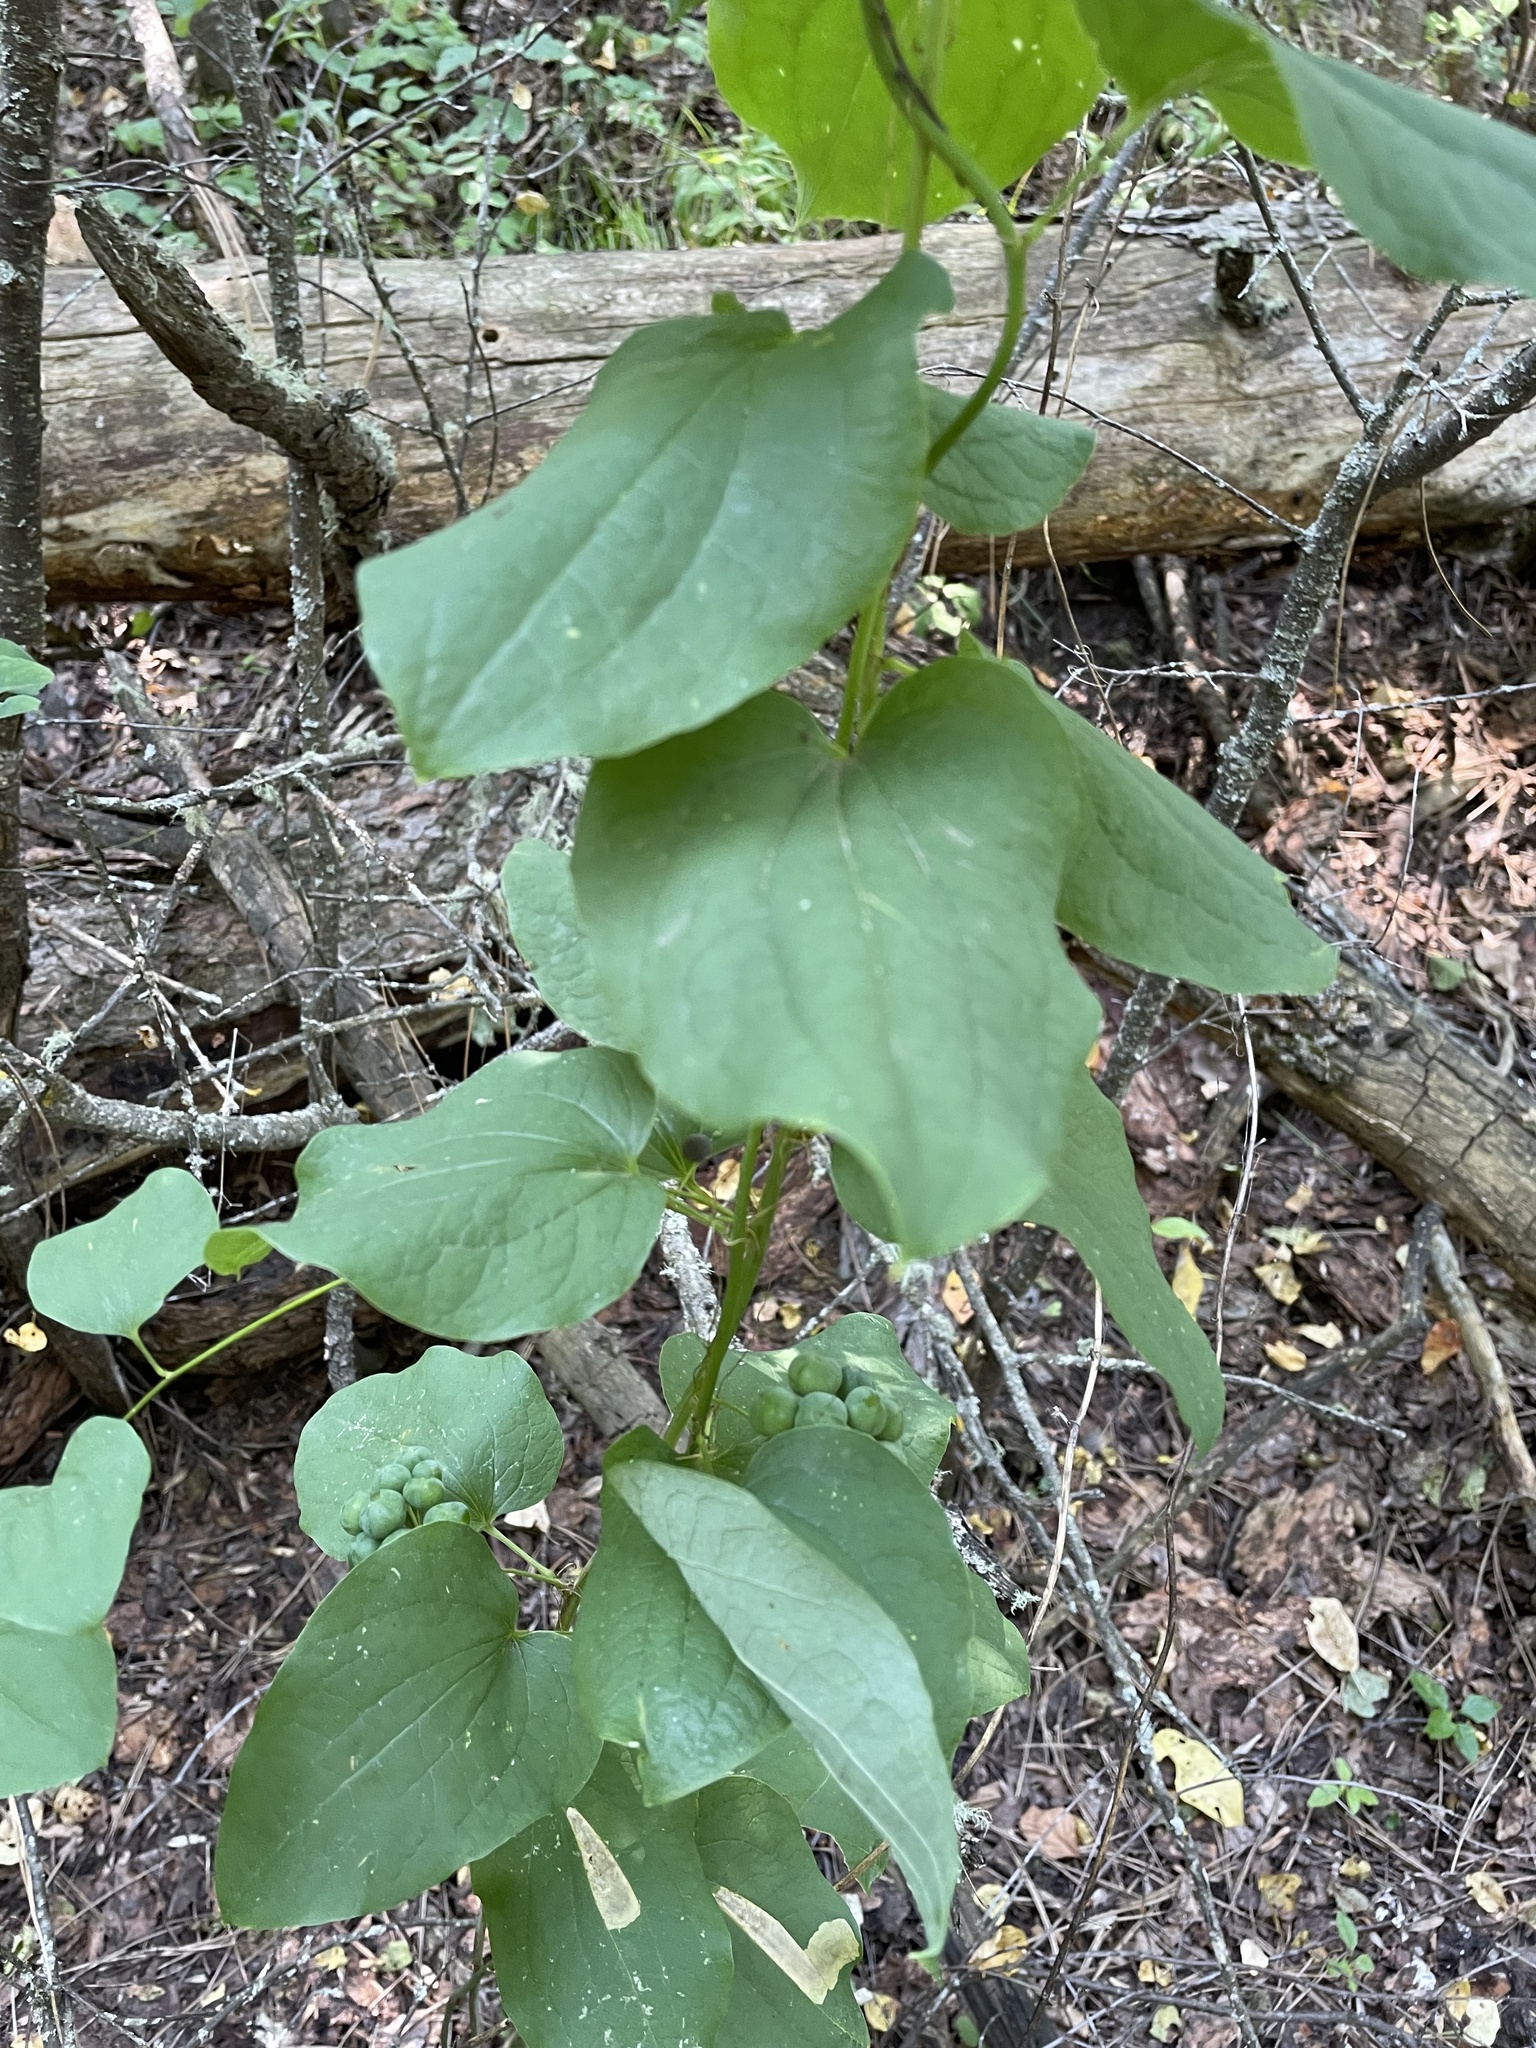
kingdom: Plantae
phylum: Tracheophyta
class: Liliopsida
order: Liliales
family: Smilacaceae
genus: Smilax
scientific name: Smilax lasioneura
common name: Blue ridge carrionflower
